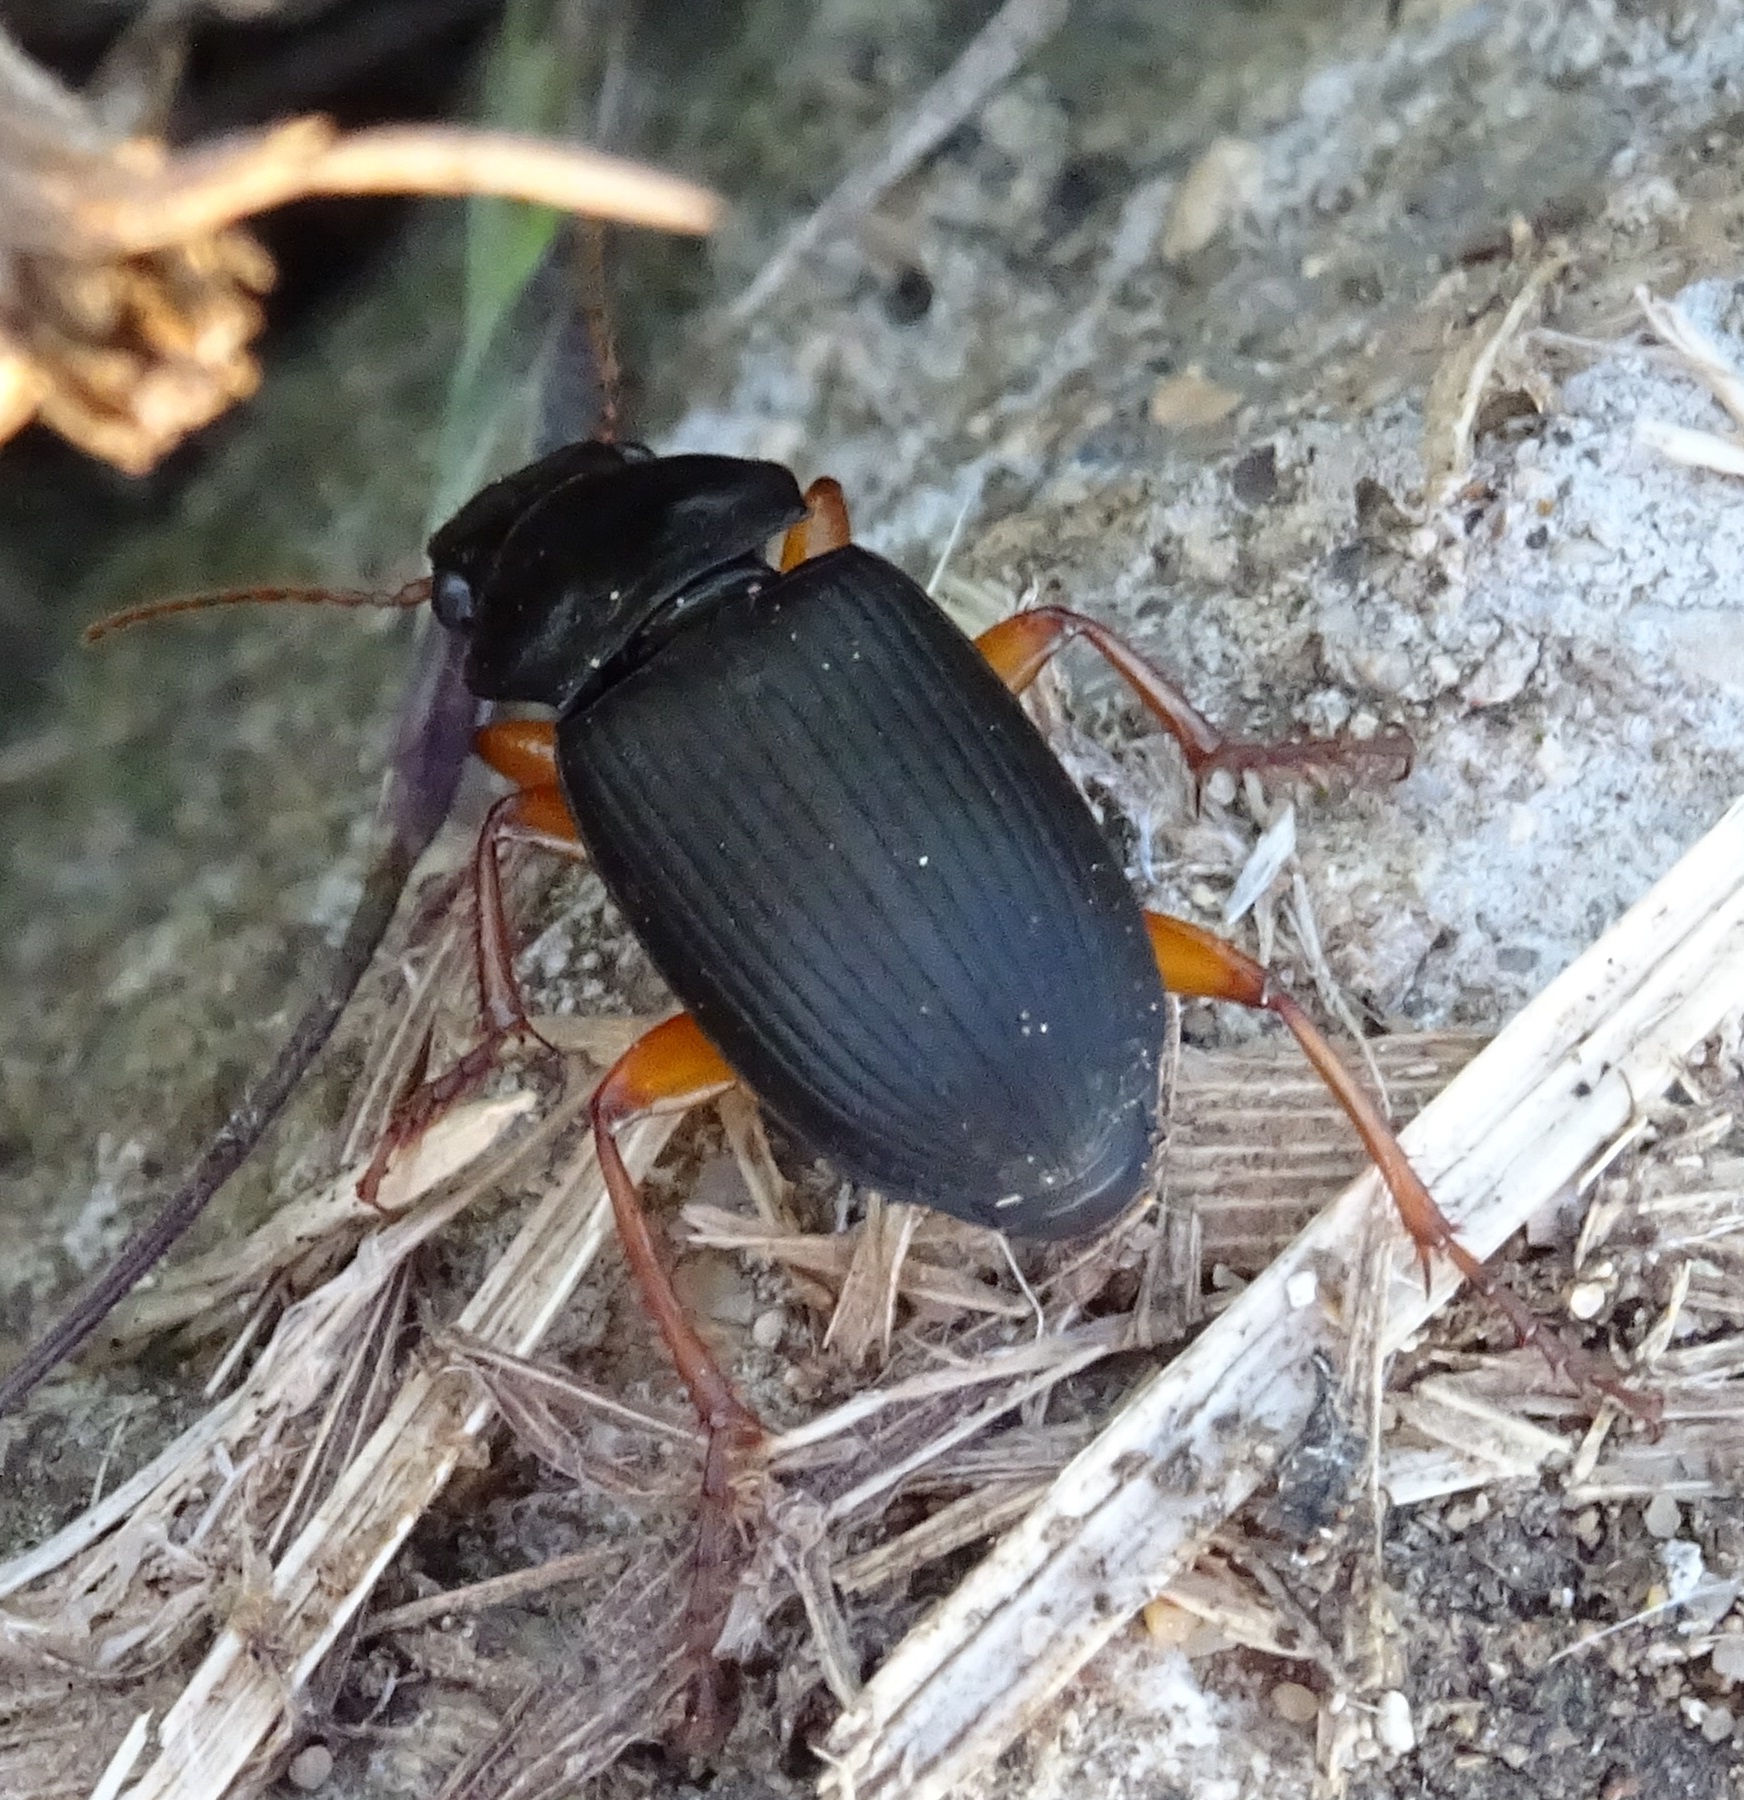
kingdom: Animalia
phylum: Arthropoda
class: Insecta
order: Coleoptera
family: Carabidae
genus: Harpalus
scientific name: Harpalus rufipes
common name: Strawberry harp ground beetle
